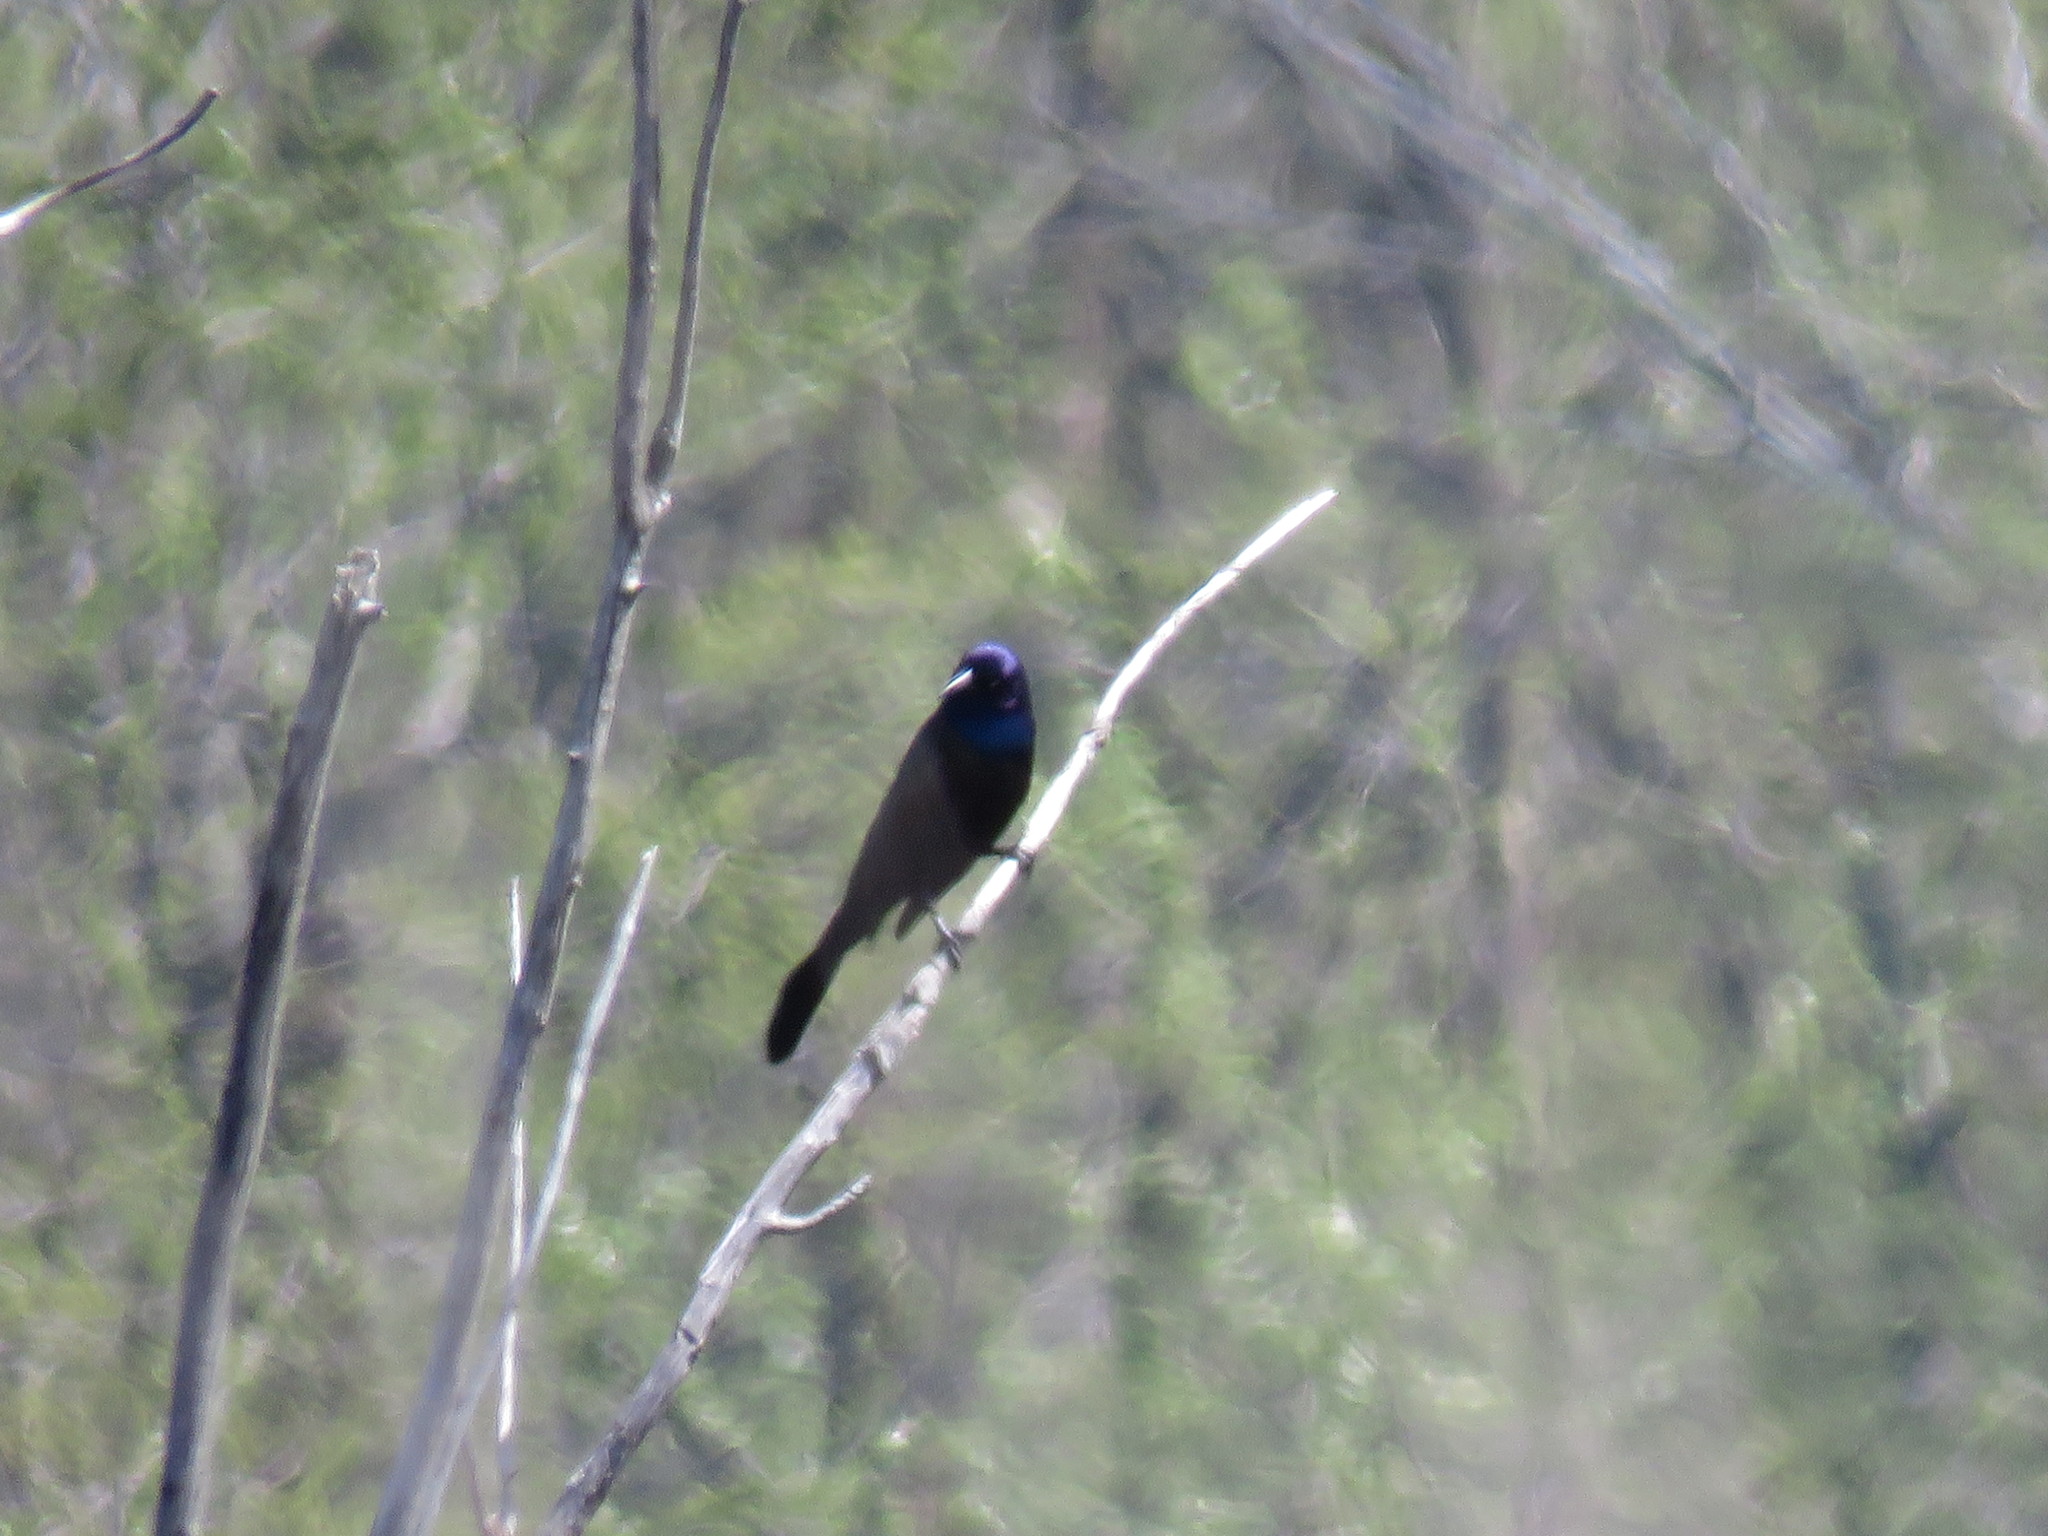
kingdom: Animalia
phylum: Chordata
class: Aves
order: Passeriformes
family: Icteridae
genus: Quiscalus
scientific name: Quiscalus quiscula
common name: Common grackle
